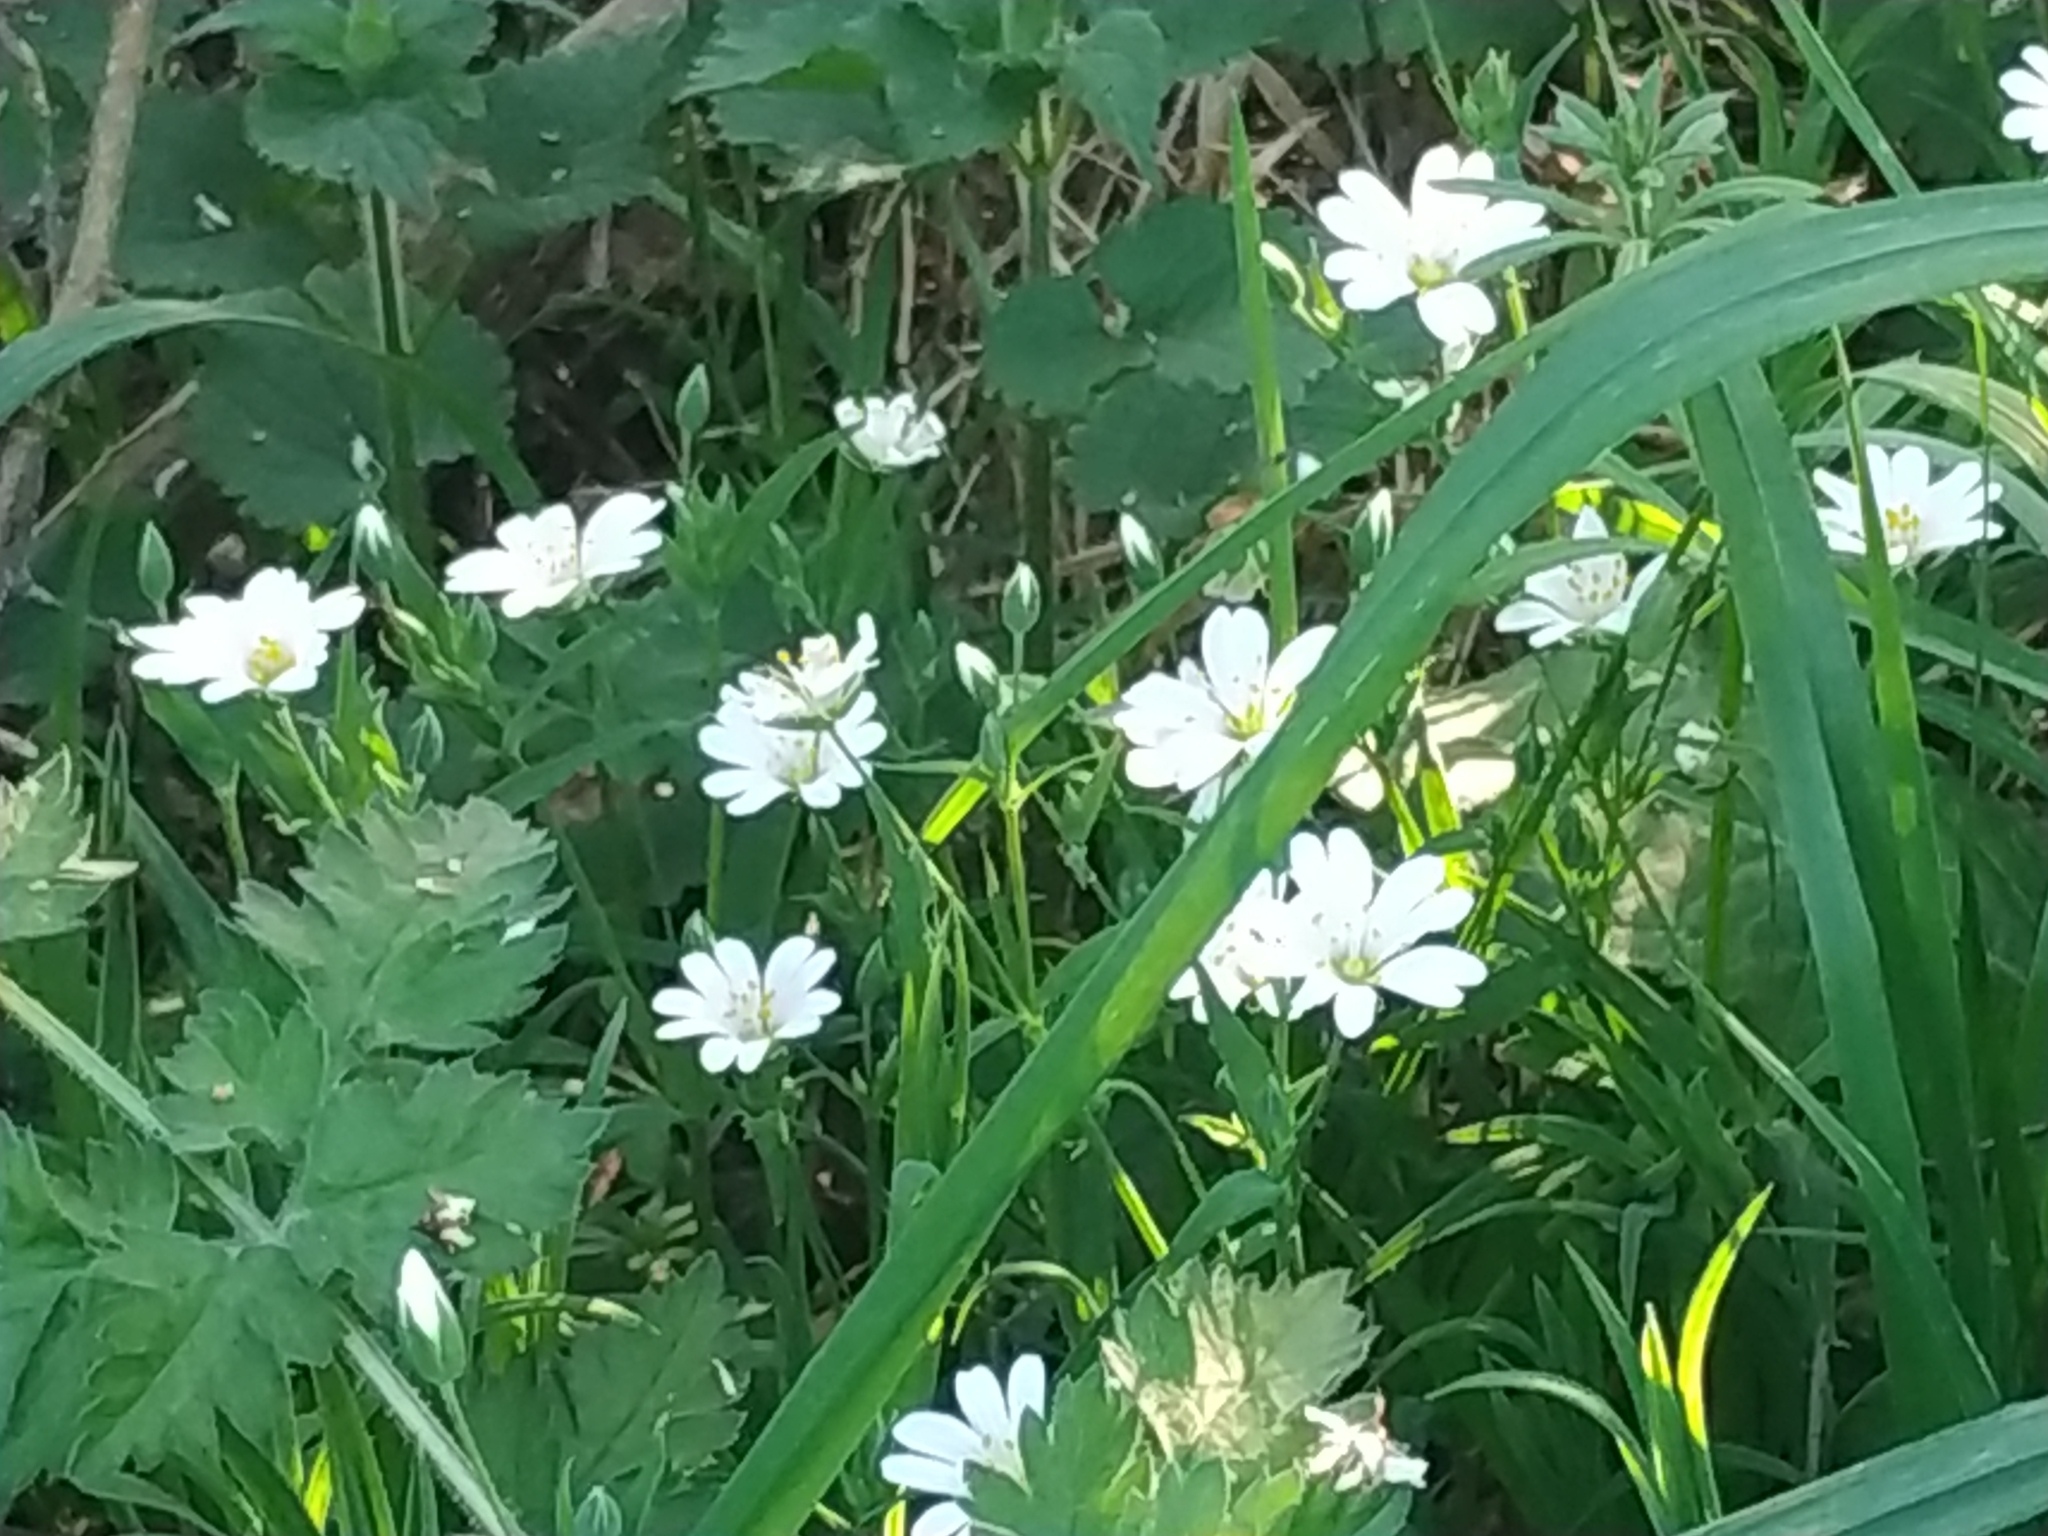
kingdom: Plantae
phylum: Tracheophyta
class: Magnoliopsida
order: Caryophyllales
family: Caryophyllaceae
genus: Rabelera
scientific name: Rabelera holostea
